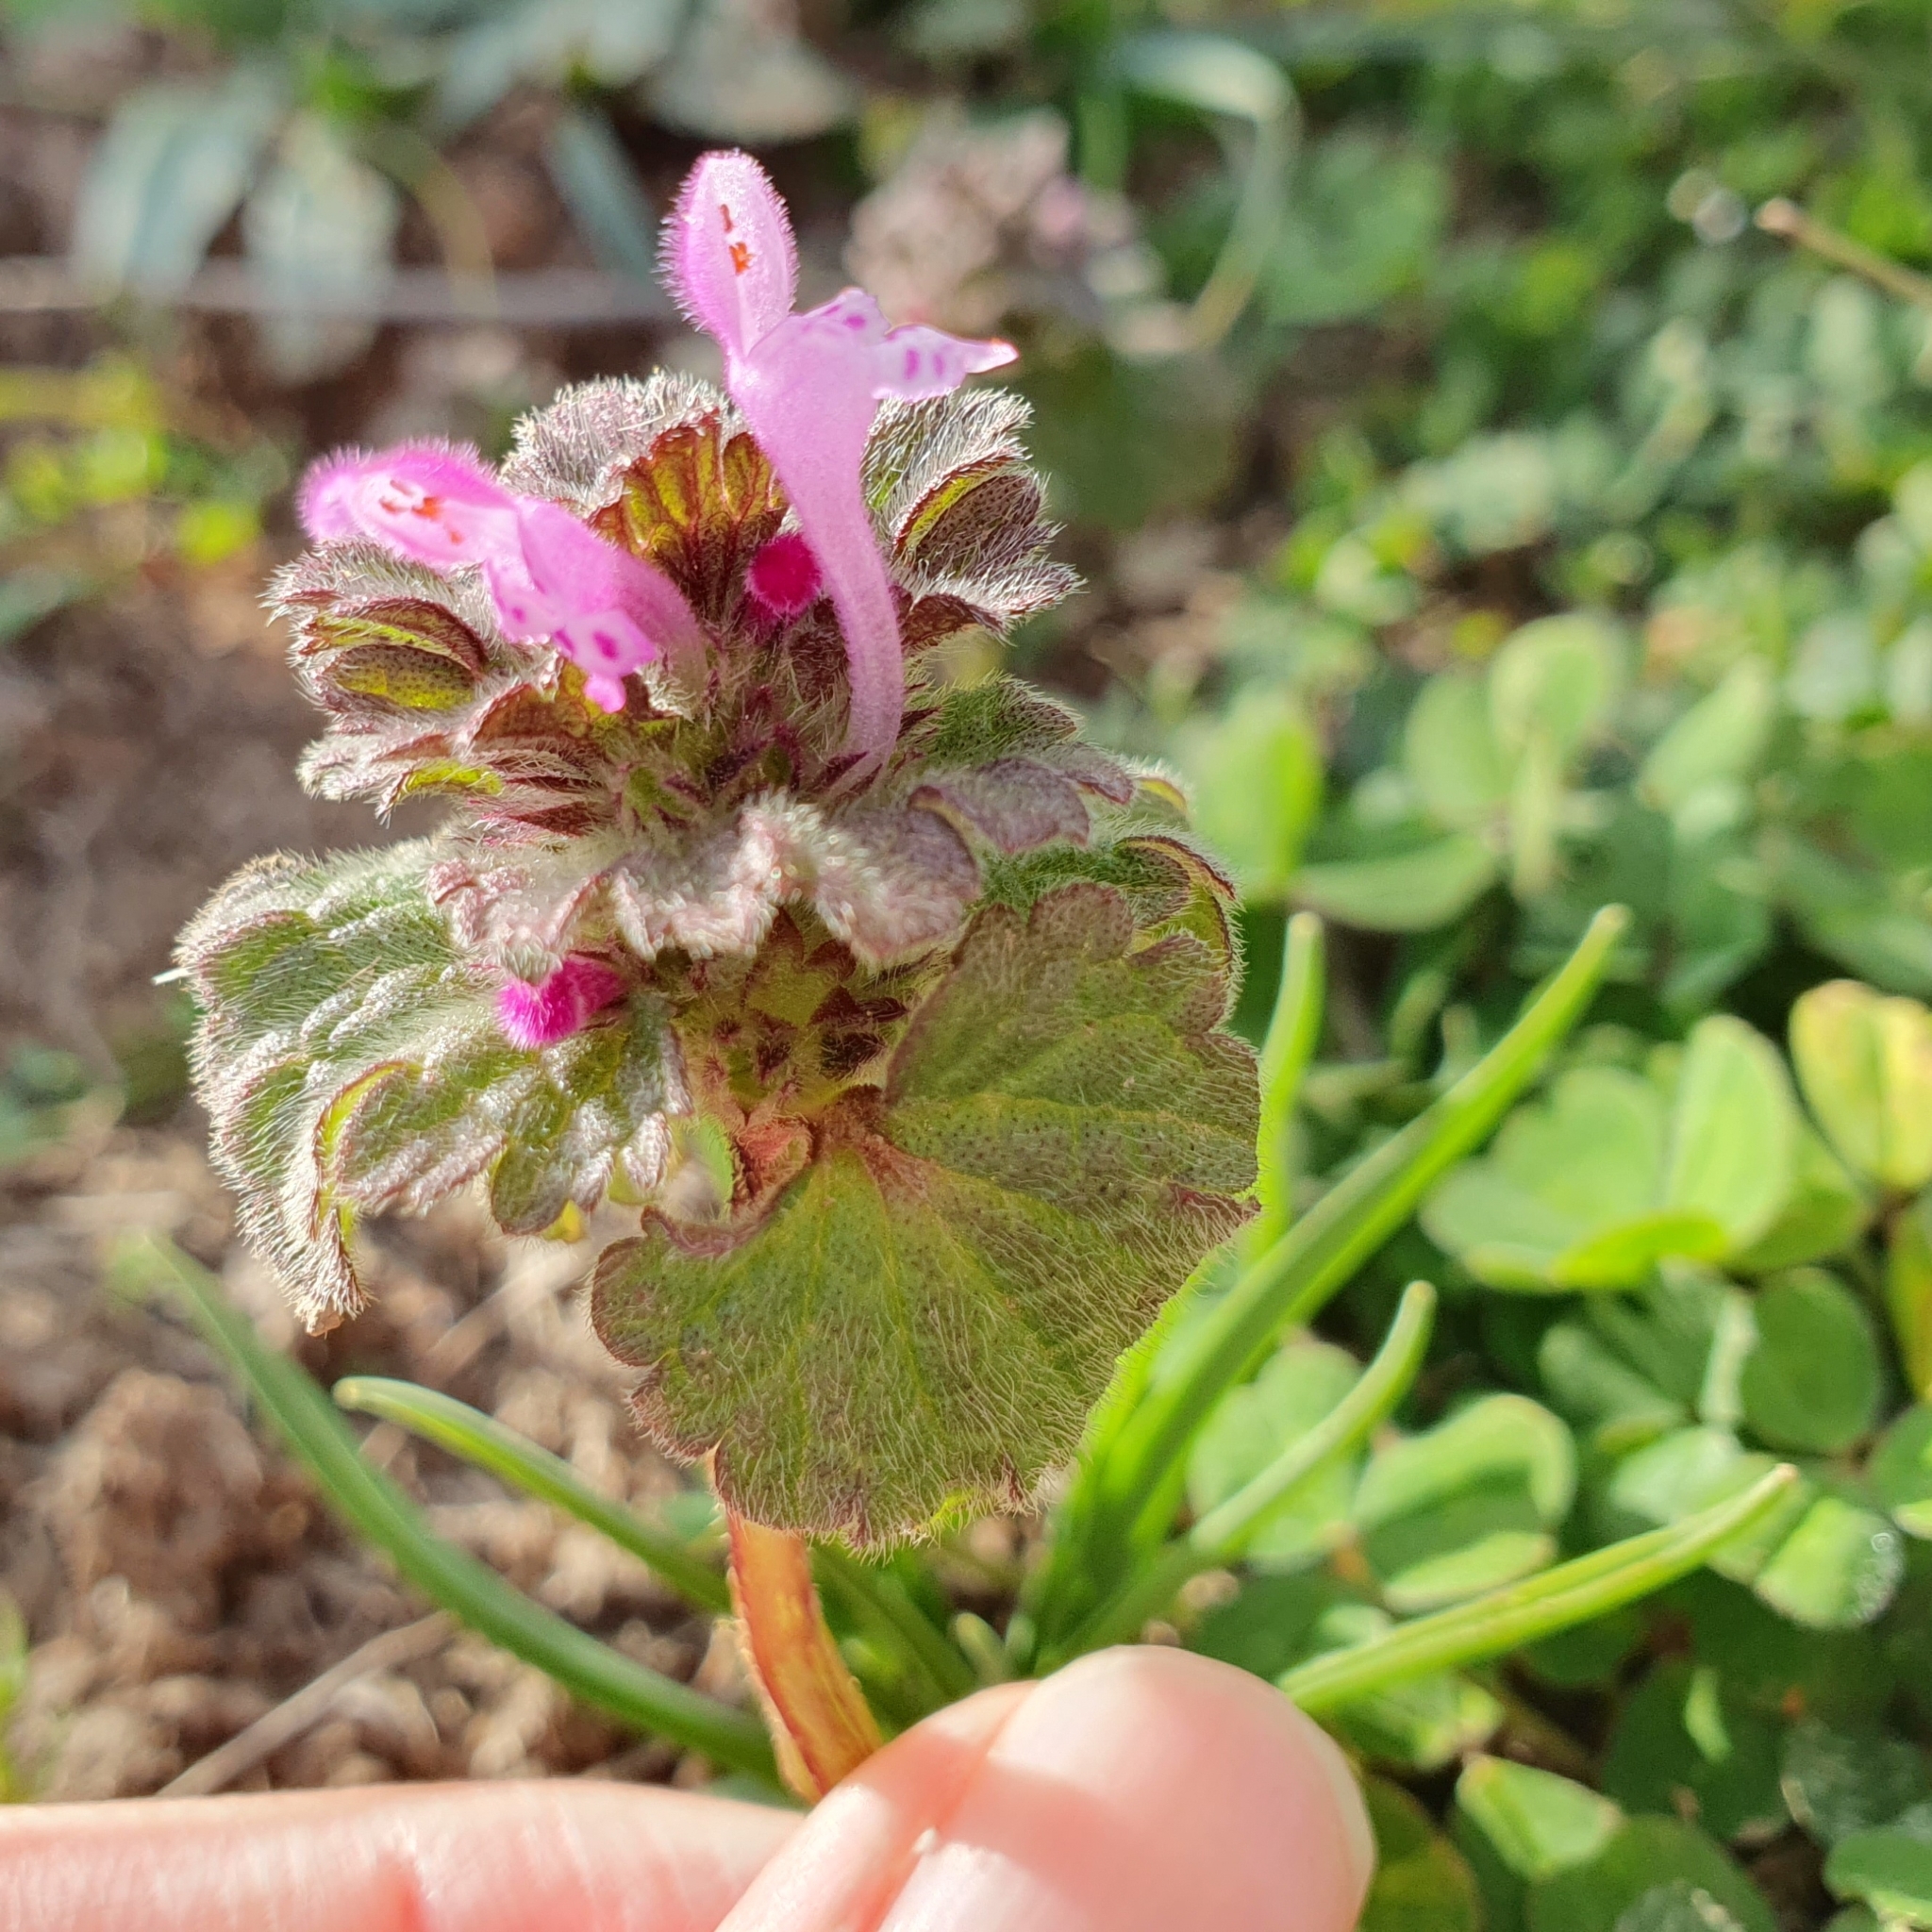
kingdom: Plantae
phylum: Tracheophyta
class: Magnoliopsida
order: Lamiales
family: Lamiaceae
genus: Lamium
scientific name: Lamium amplexicaule
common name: Henbit dead-nettle
